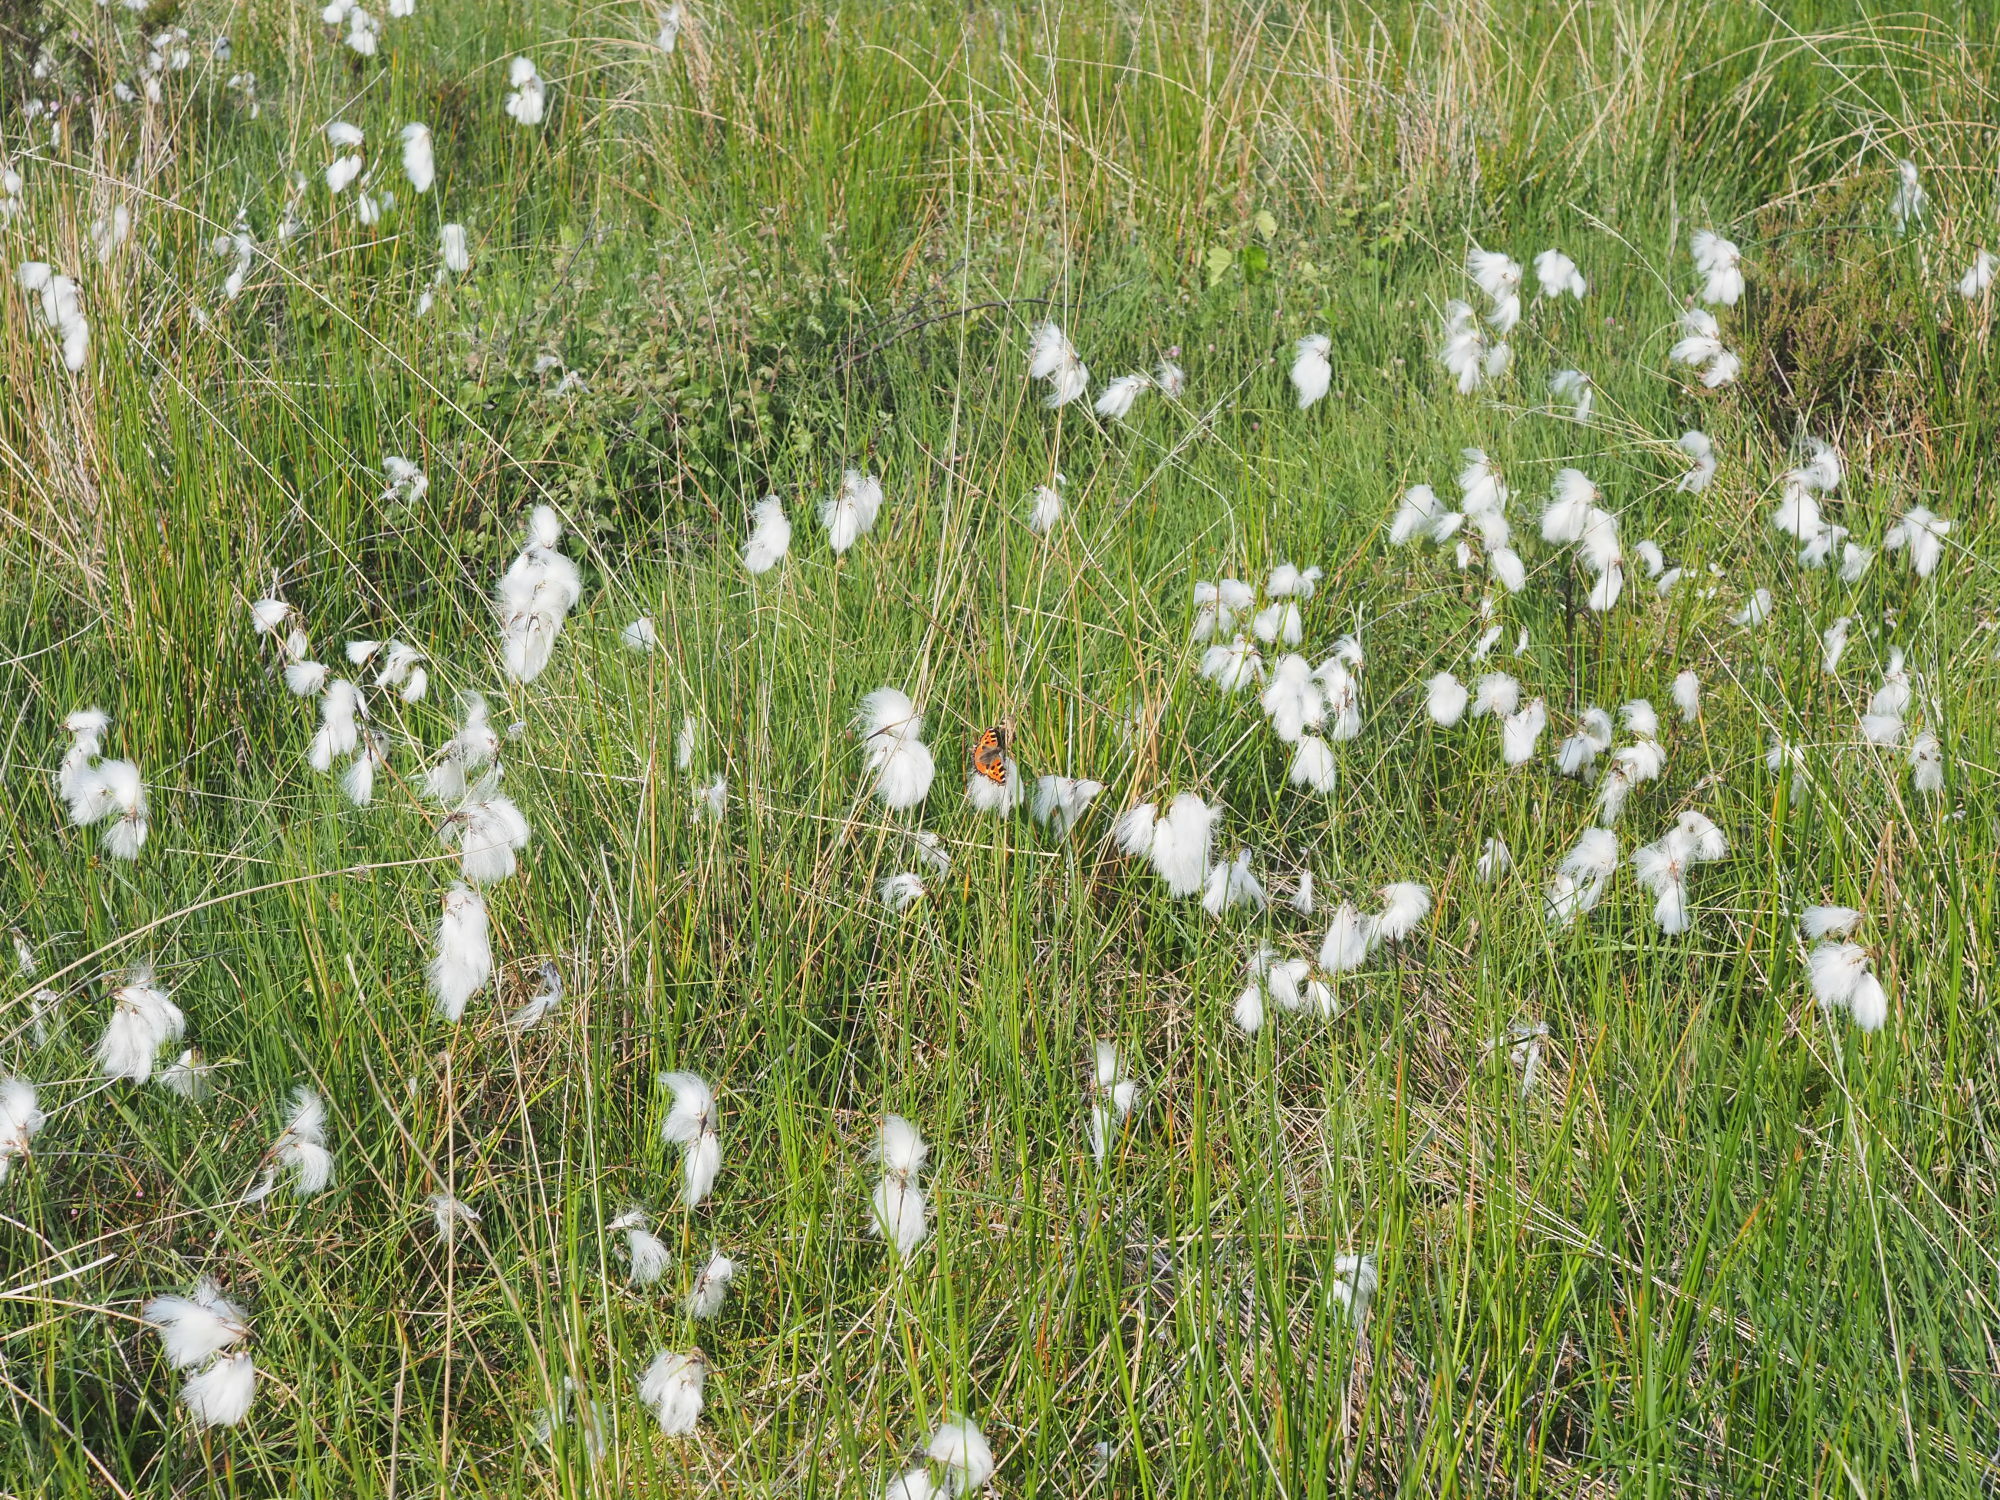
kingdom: Animalia
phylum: Arthropoda
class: Insecta
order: Lepidoptera
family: Nymphalidae
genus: Aglais
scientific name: Aglais urticae
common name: Small tortoiseshell
